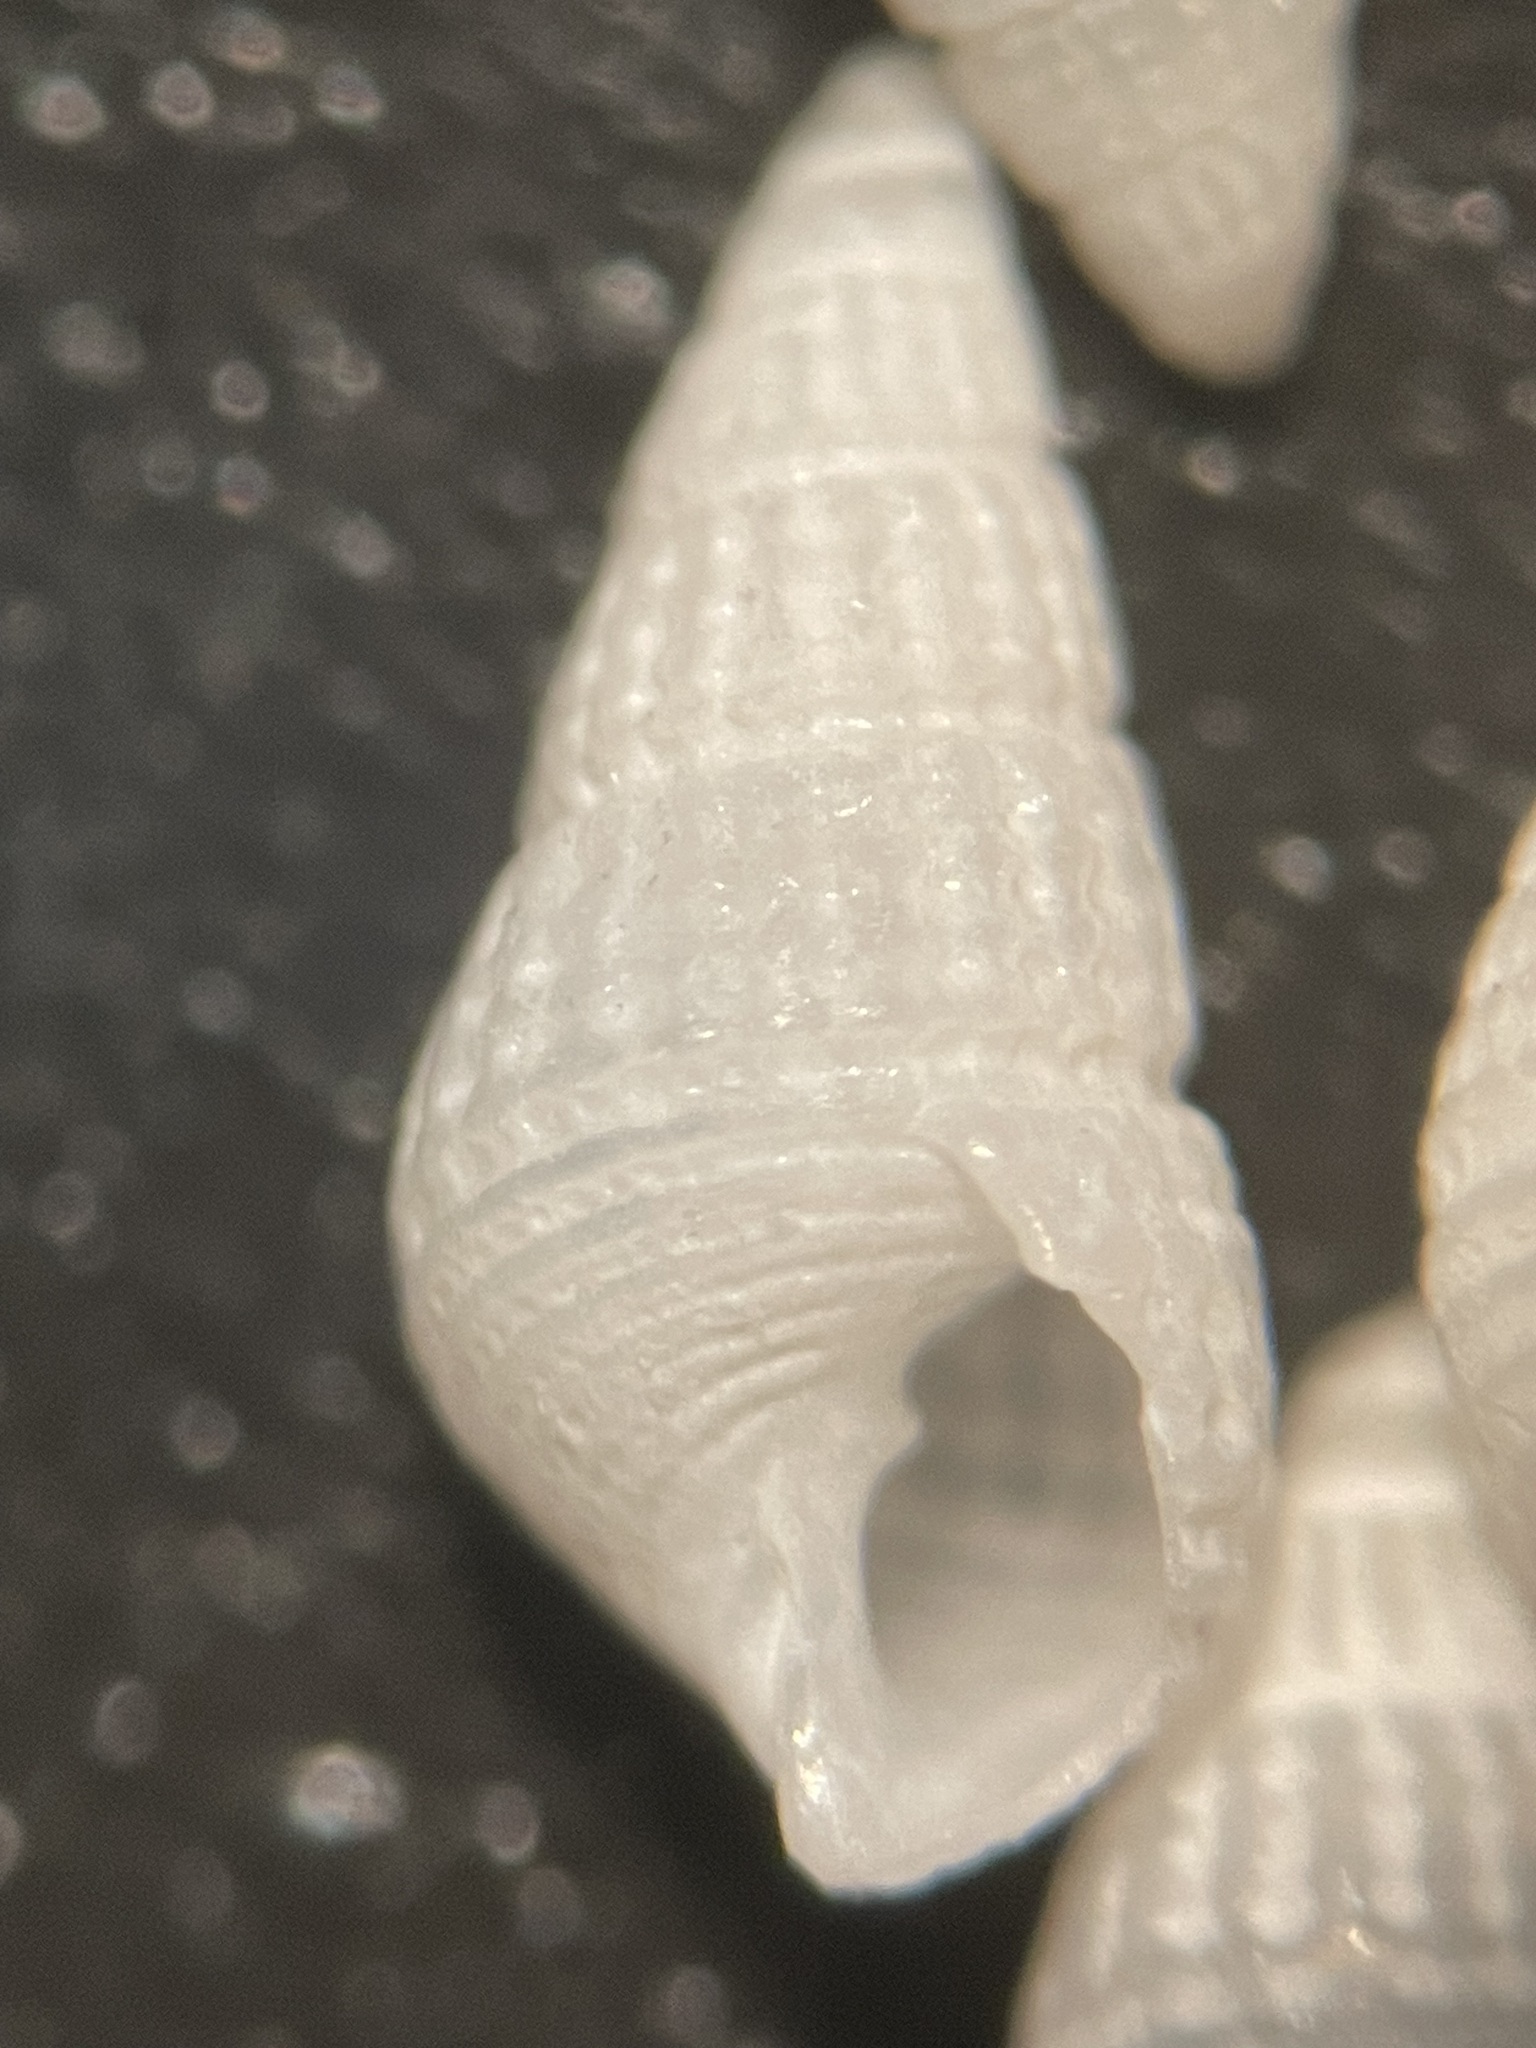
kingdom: Animalia
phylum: Mollusca
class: Gastropoda
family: Pyramidellidae
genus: Boonea
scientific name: Boonea seminuda
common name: Half-smooth odostome
